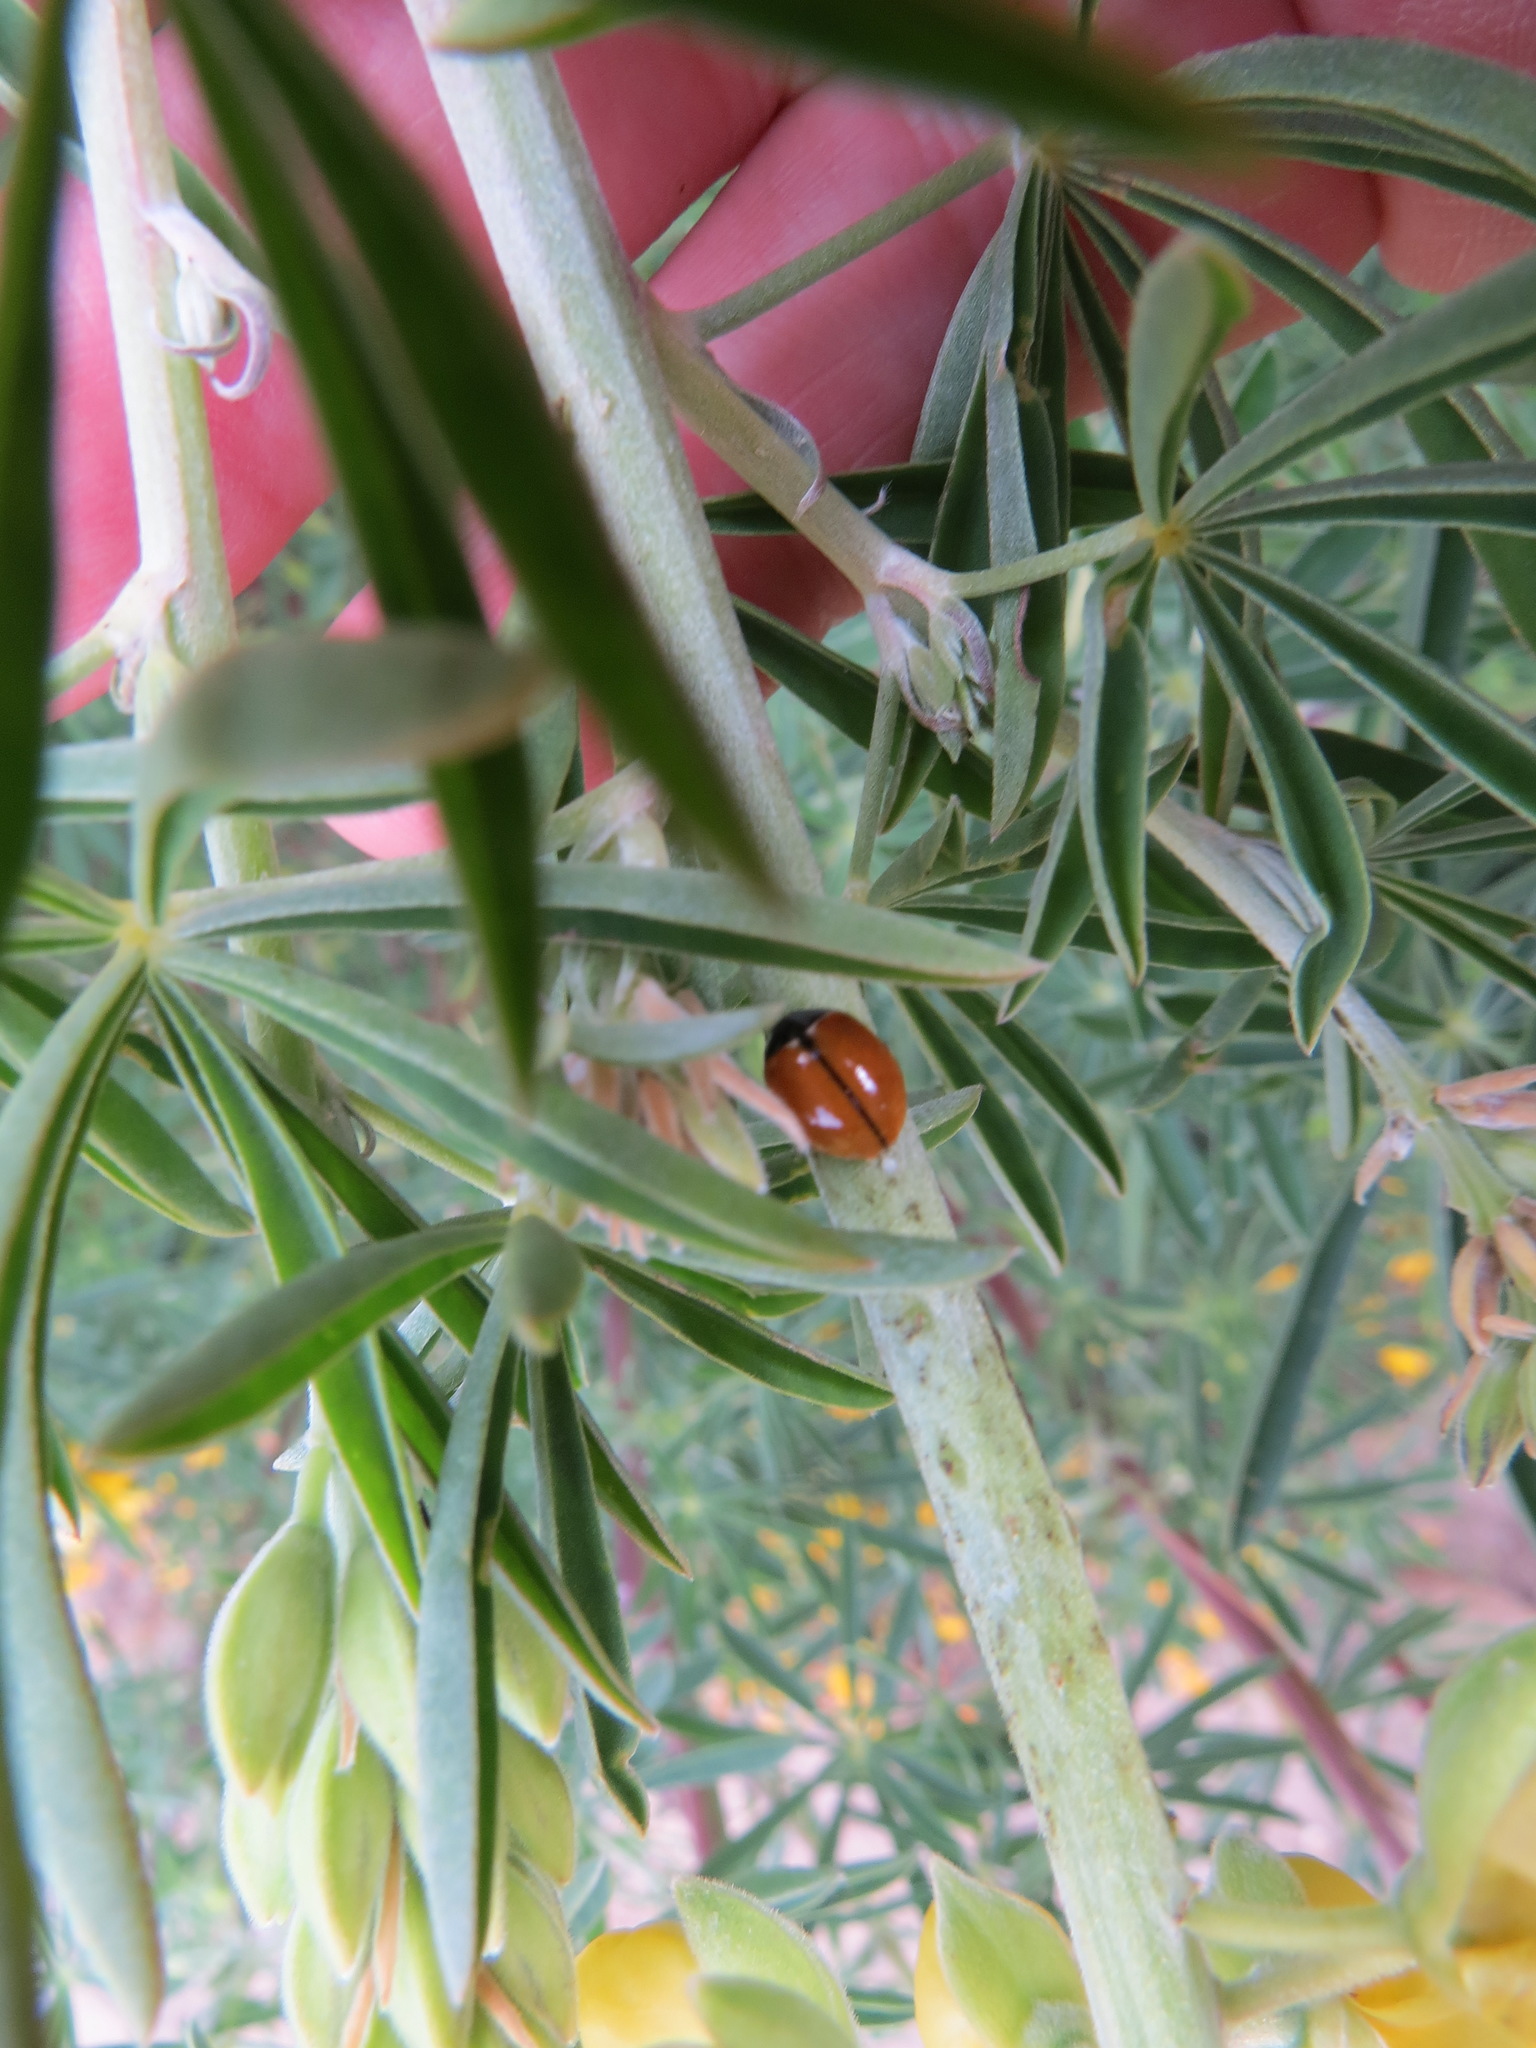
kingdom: Animalia
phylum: Arthropoda
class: Insecta
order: Coleoptera
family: Coccinellidae
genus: Coccinella
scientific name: Coccinella californica
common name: Lady beetle
